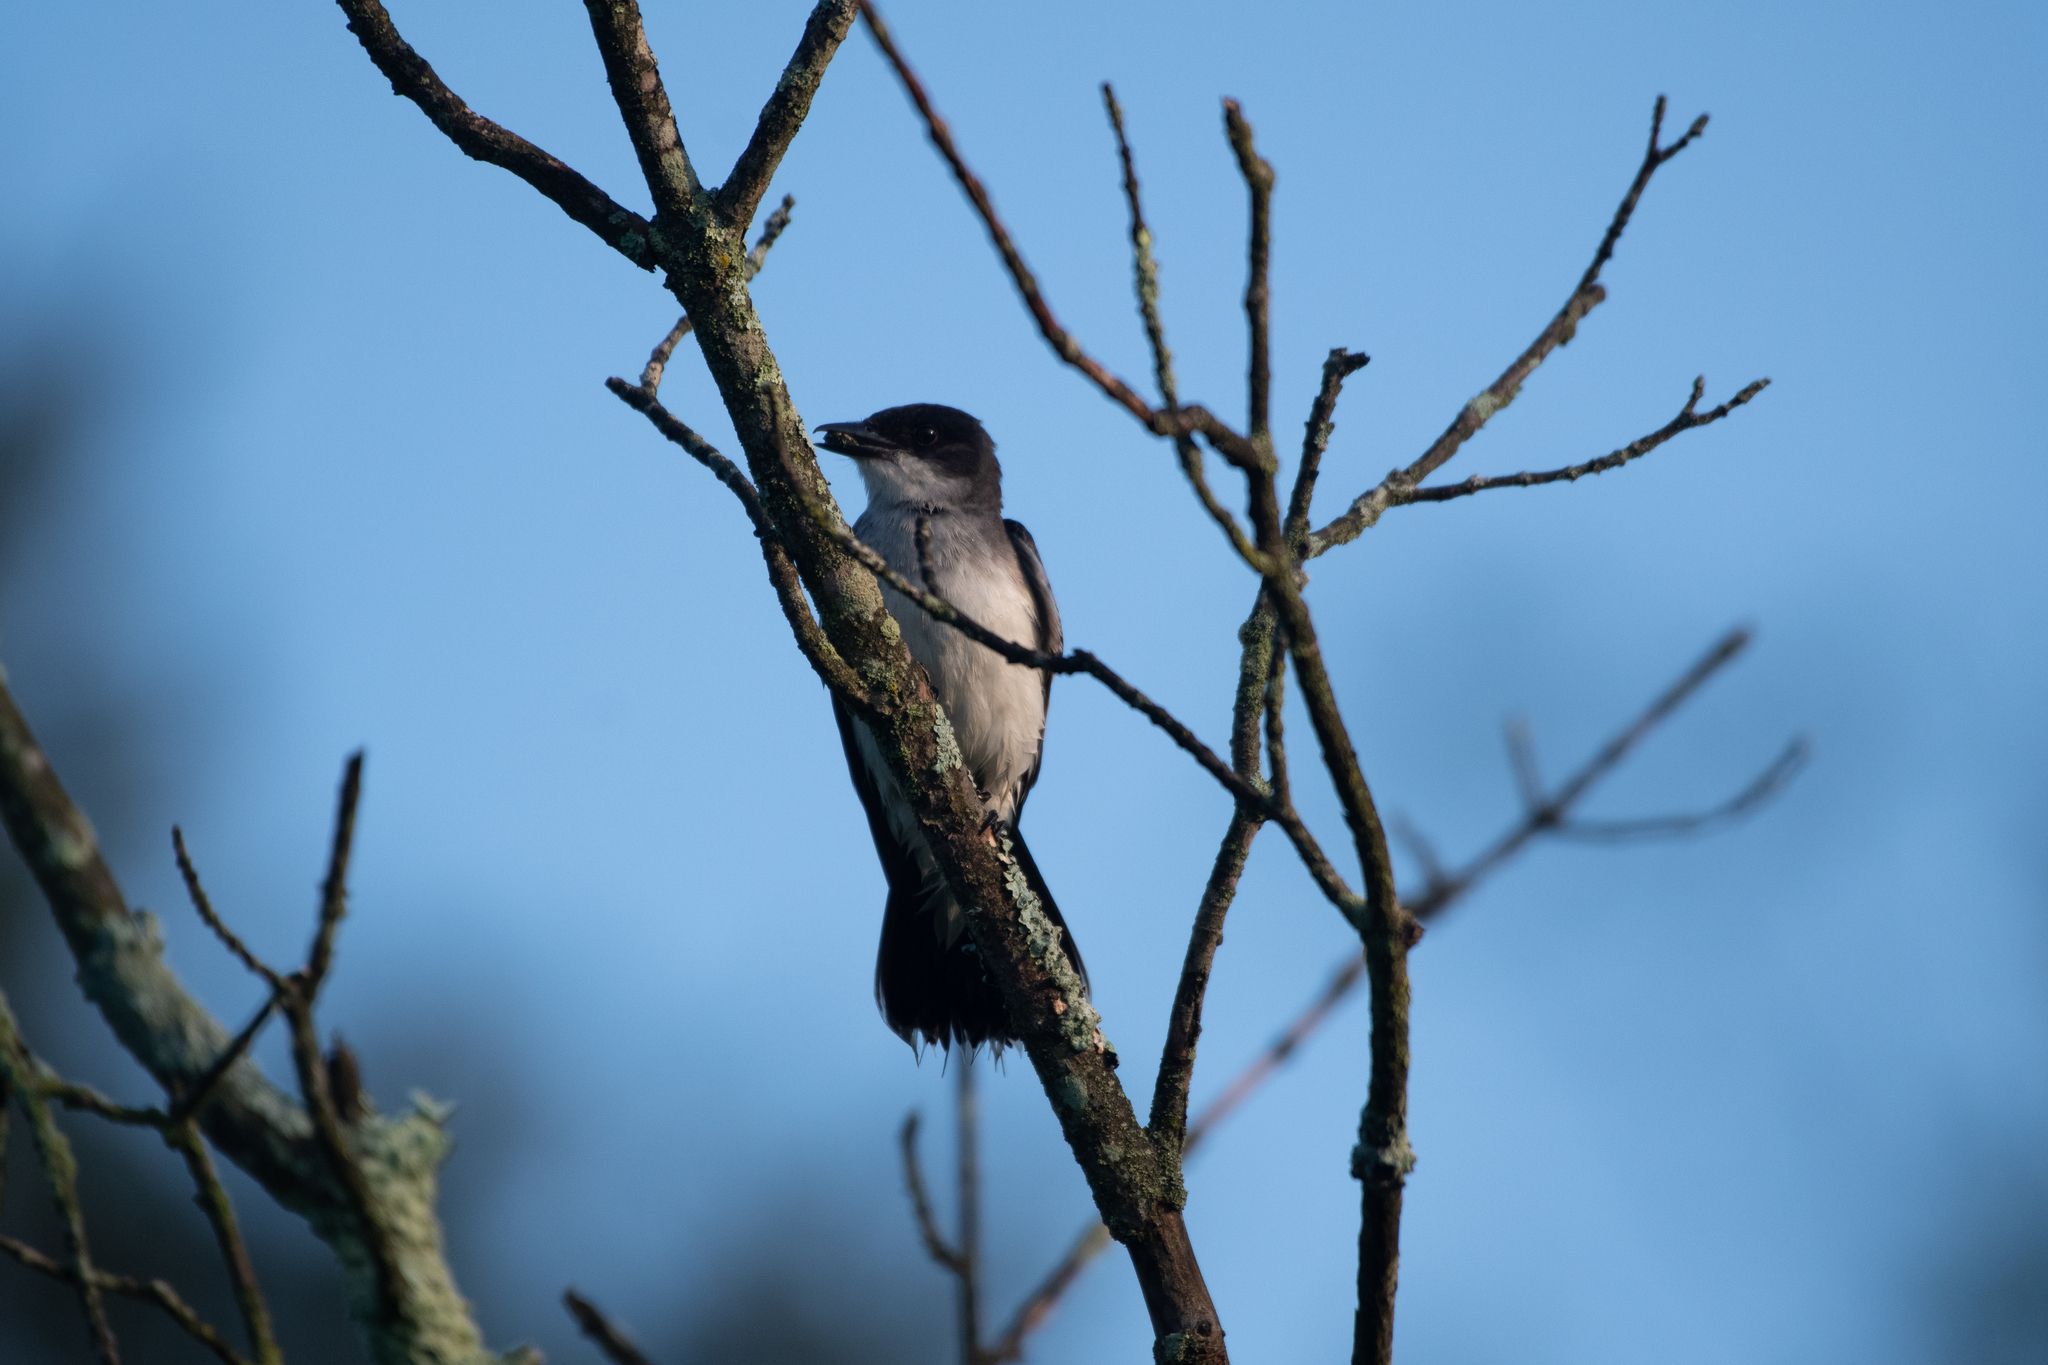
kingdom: Animalia
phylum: Chordata
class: Aves
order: Passeriformes
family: Tyrannidae
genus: Tyrannus
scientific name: Tyrannus tyrannus
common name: Eastern kingbird
